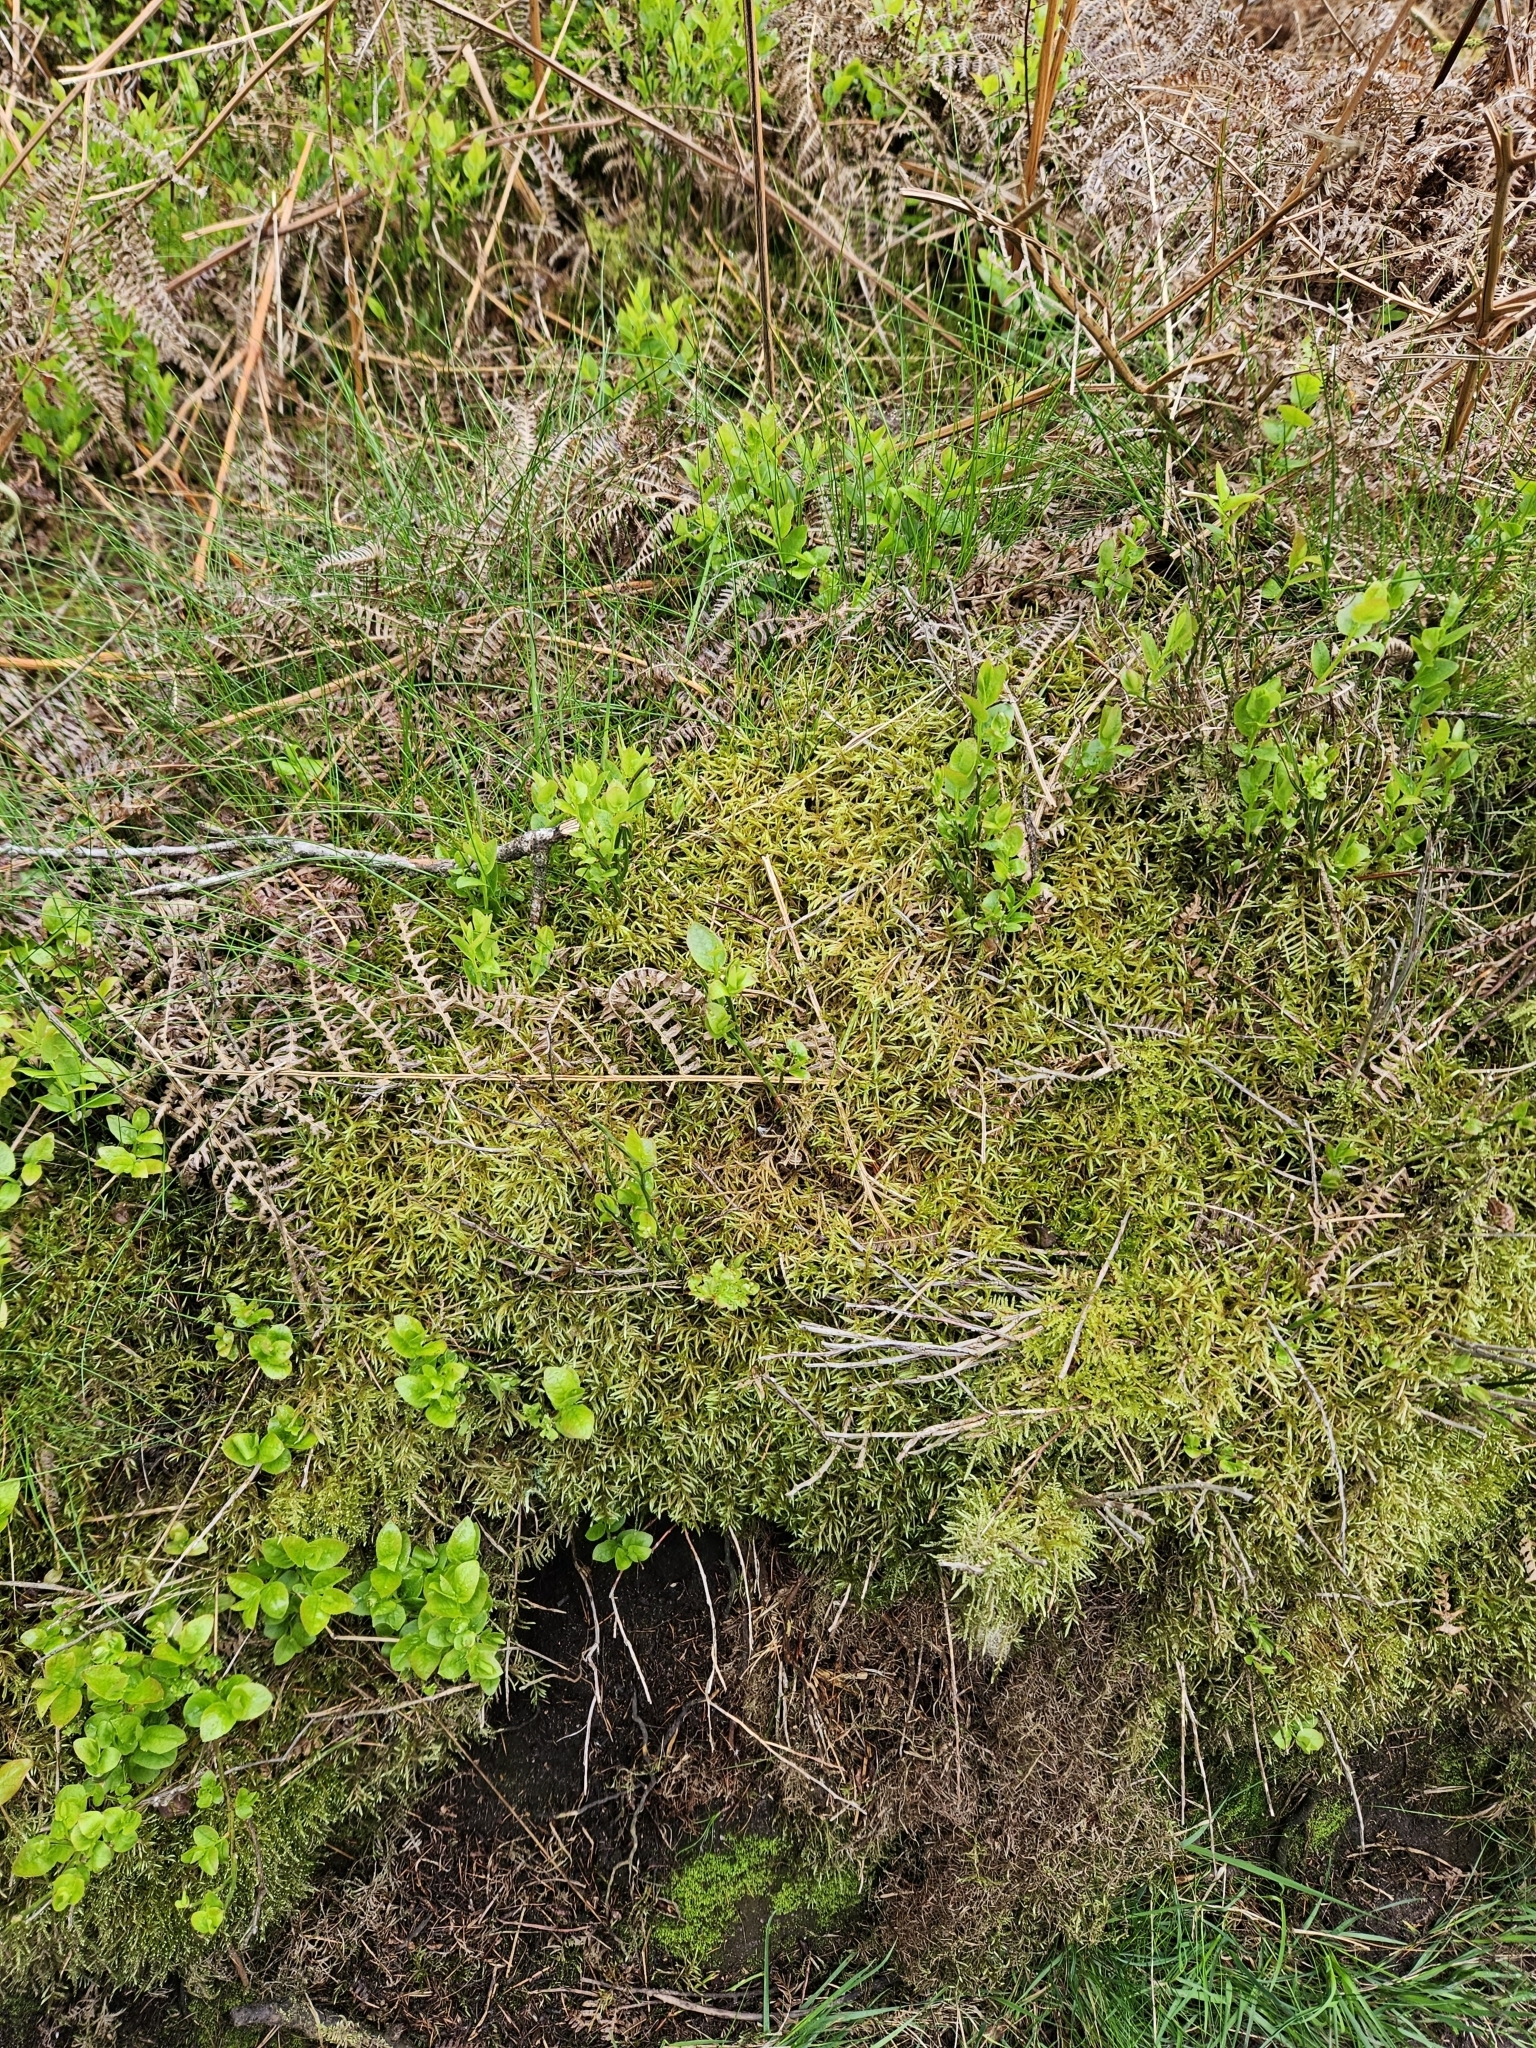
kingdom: Plantae
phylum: Bryophyta
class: Bryopsida
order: Hypnales
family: Hylocomiaceae
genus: Pleurozium
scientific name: Pleurozium schreberi
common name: Red-stemmed feather moss
